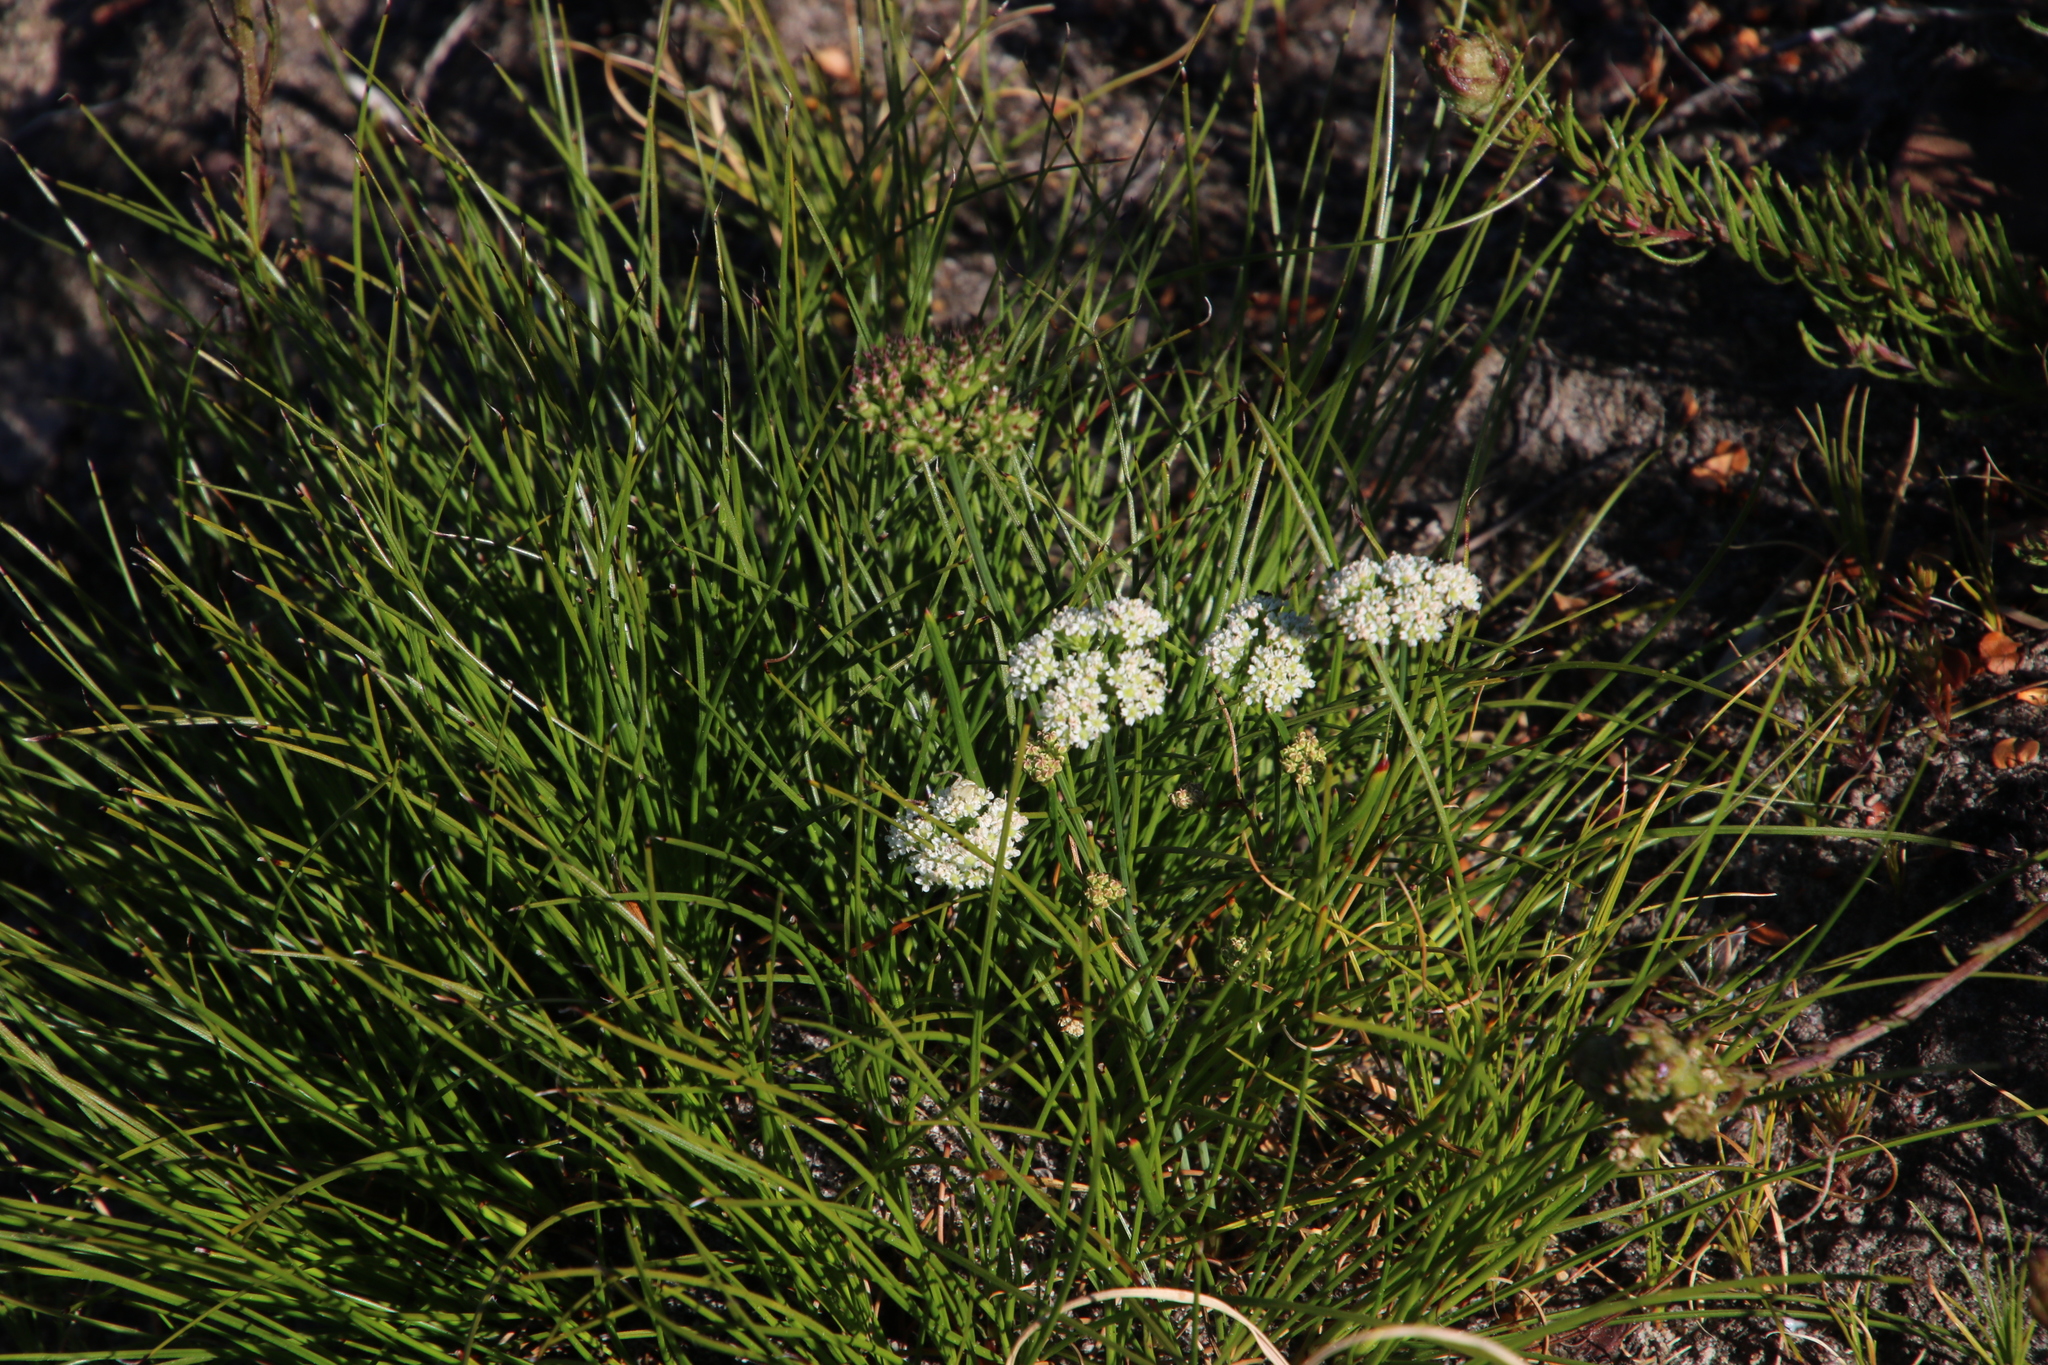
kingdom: Plantae
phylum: Tracheophyta
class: Magnoliopsida
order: Apiales
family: Apiaceae
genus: Itasina
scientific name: Itasina filifolia
